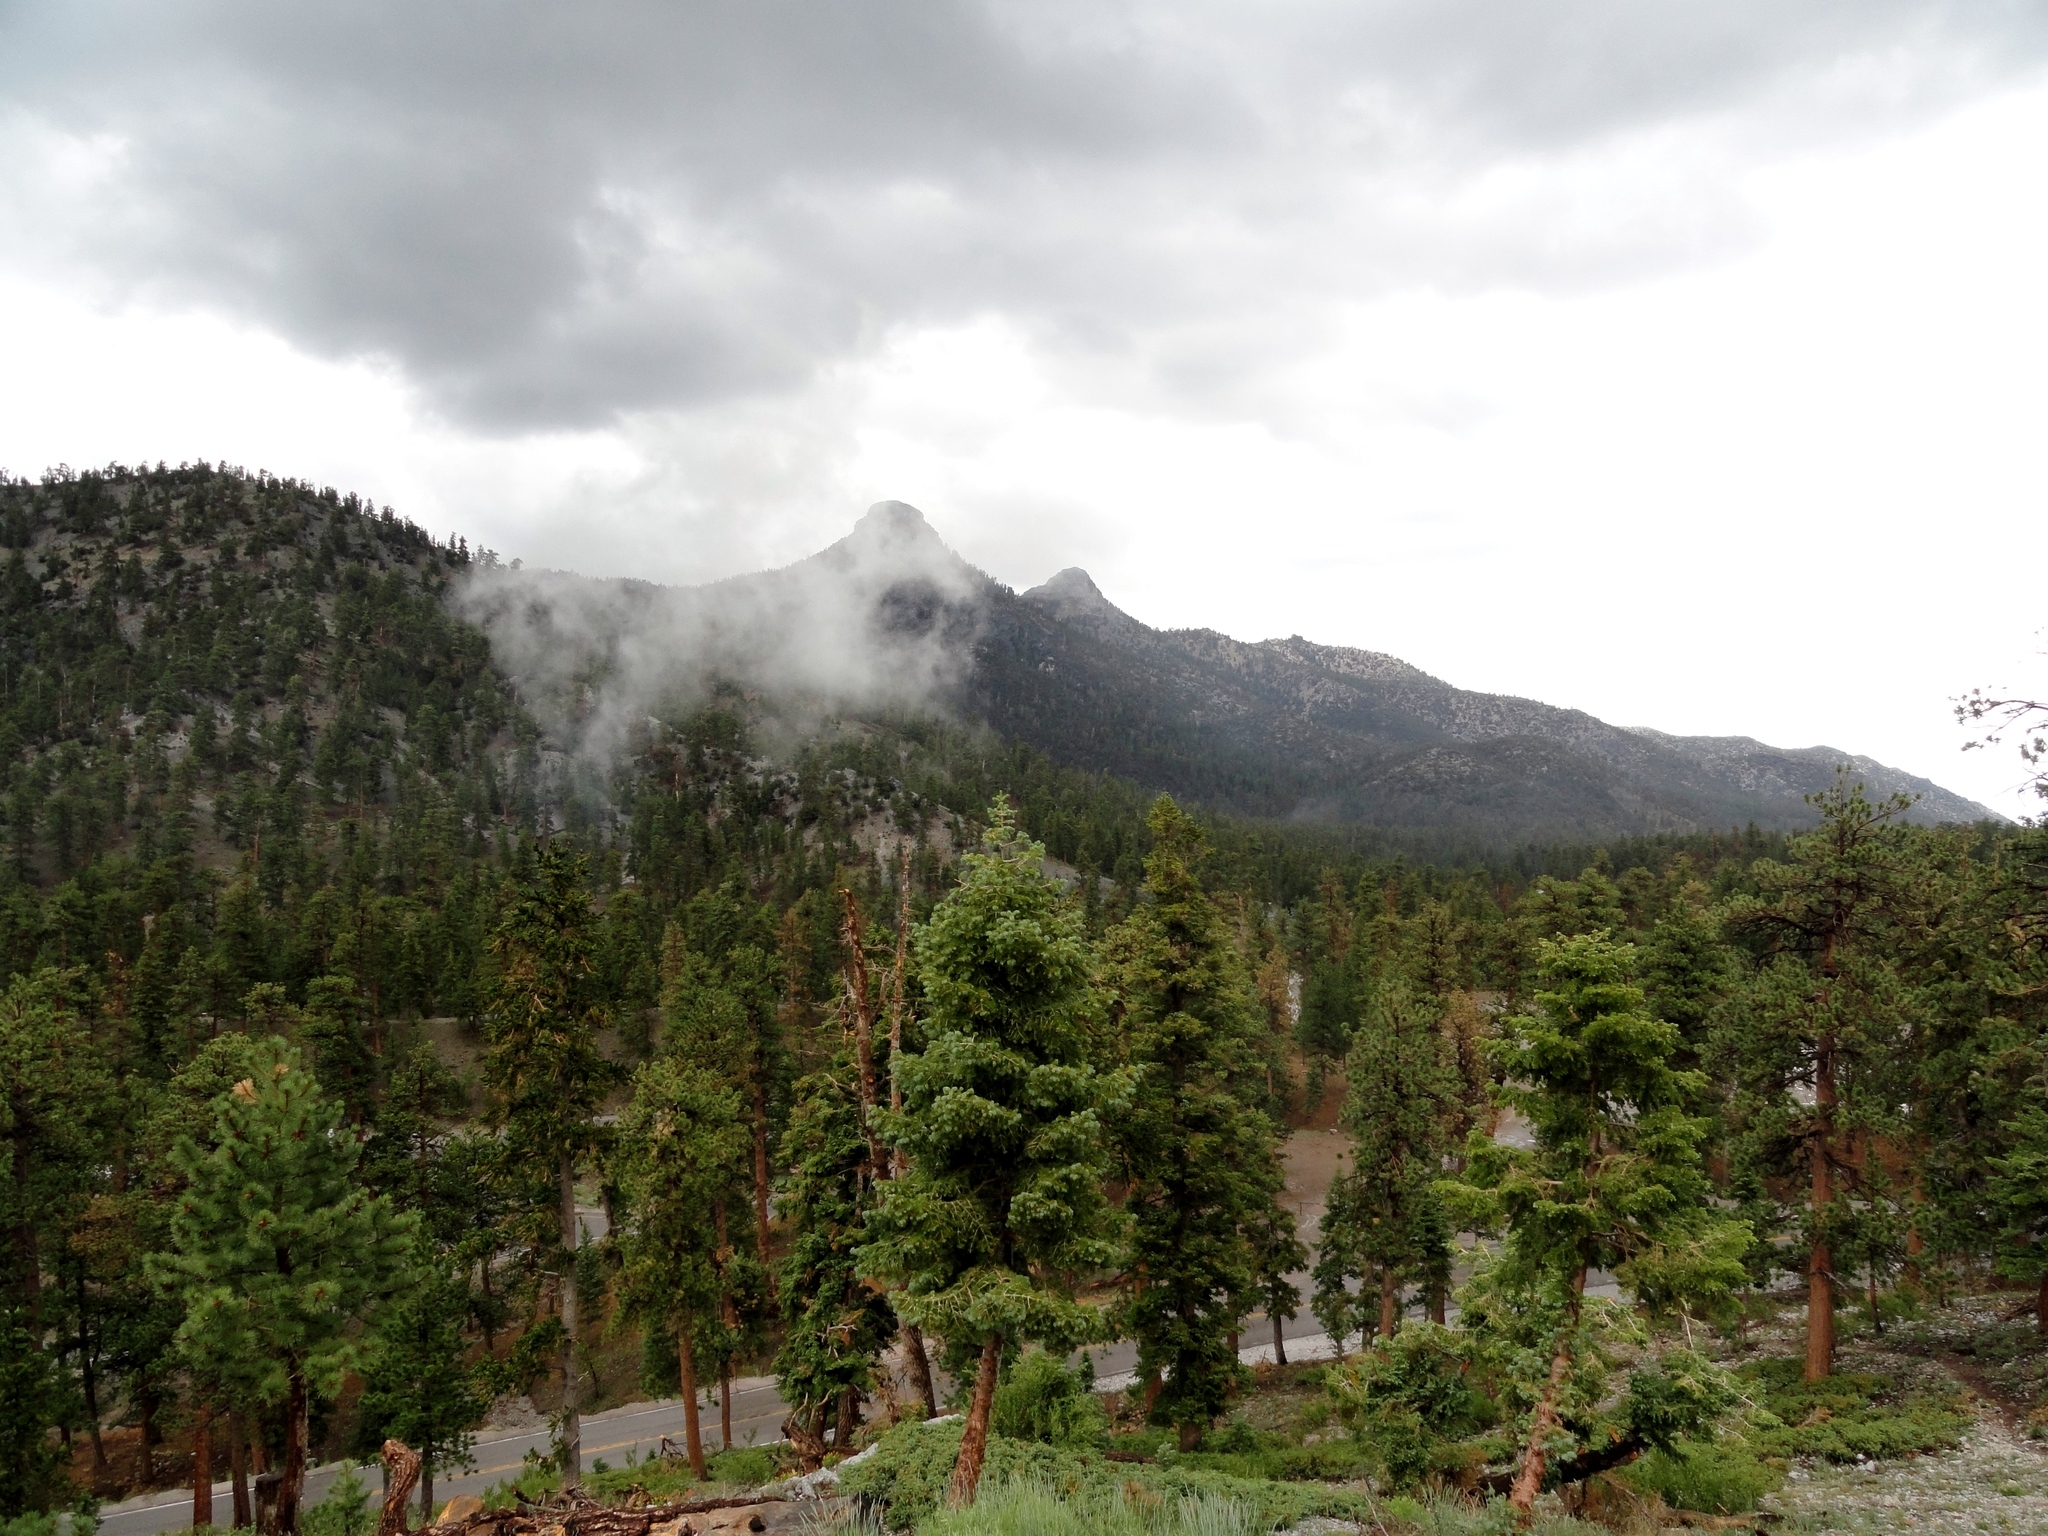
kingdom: Plantae
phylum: Tracheophyta
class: Pinopsida
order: Pinales
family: Pinaceae
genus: Abies
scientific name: Abies concolor
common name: Colorado fir
